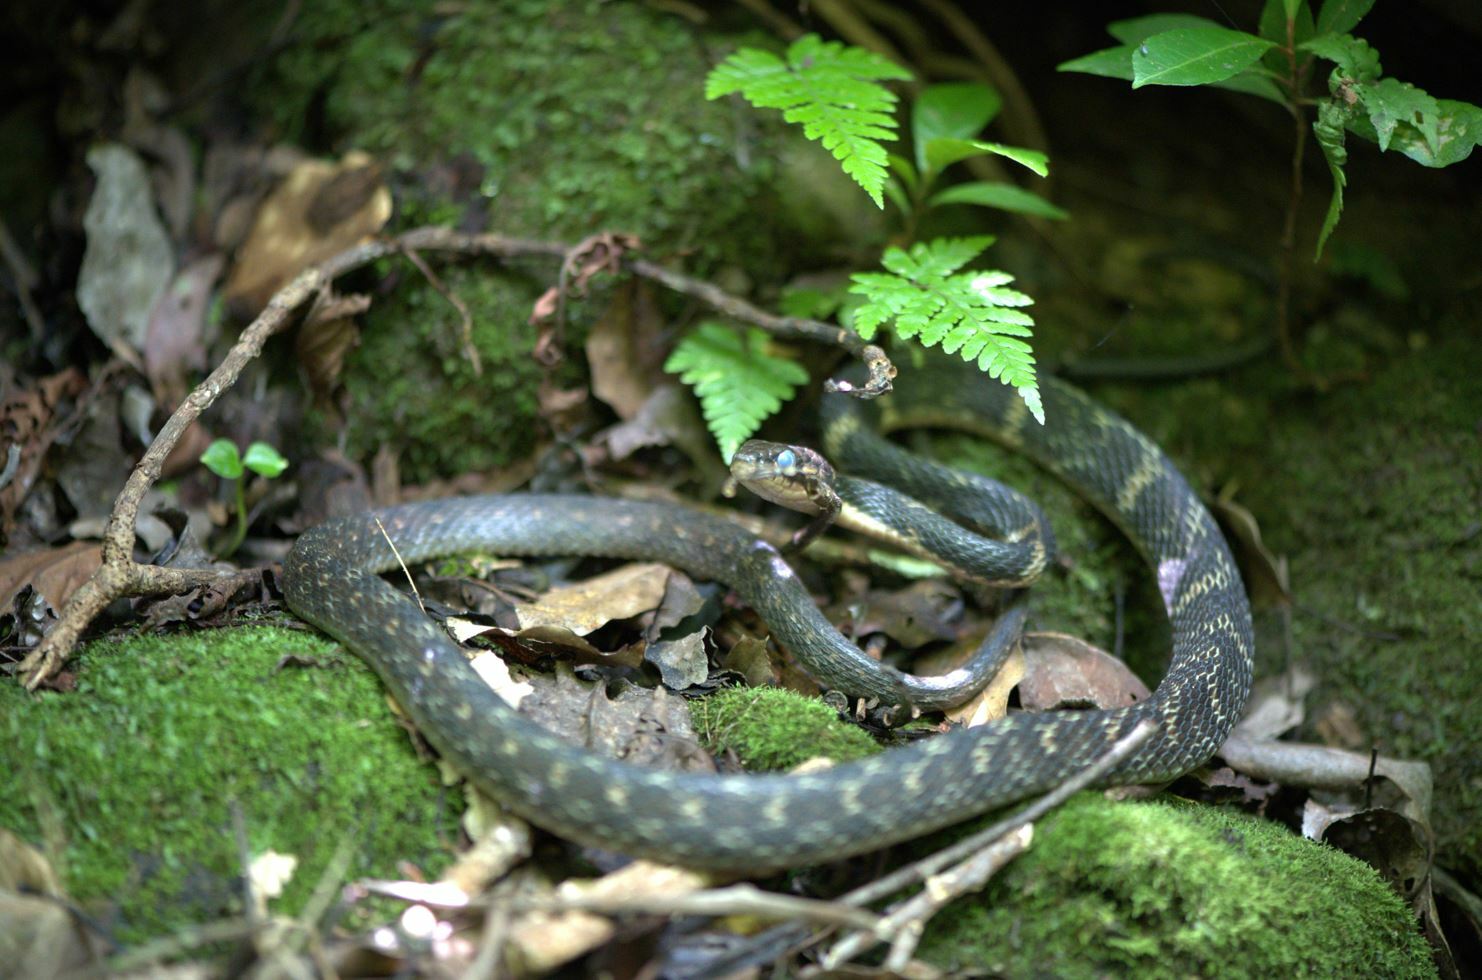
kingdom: Animalia
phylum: Chordata
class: Squamata
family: Colubridae
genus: Hebius
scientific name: Hebius pryeri
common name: Pryer's keelback
